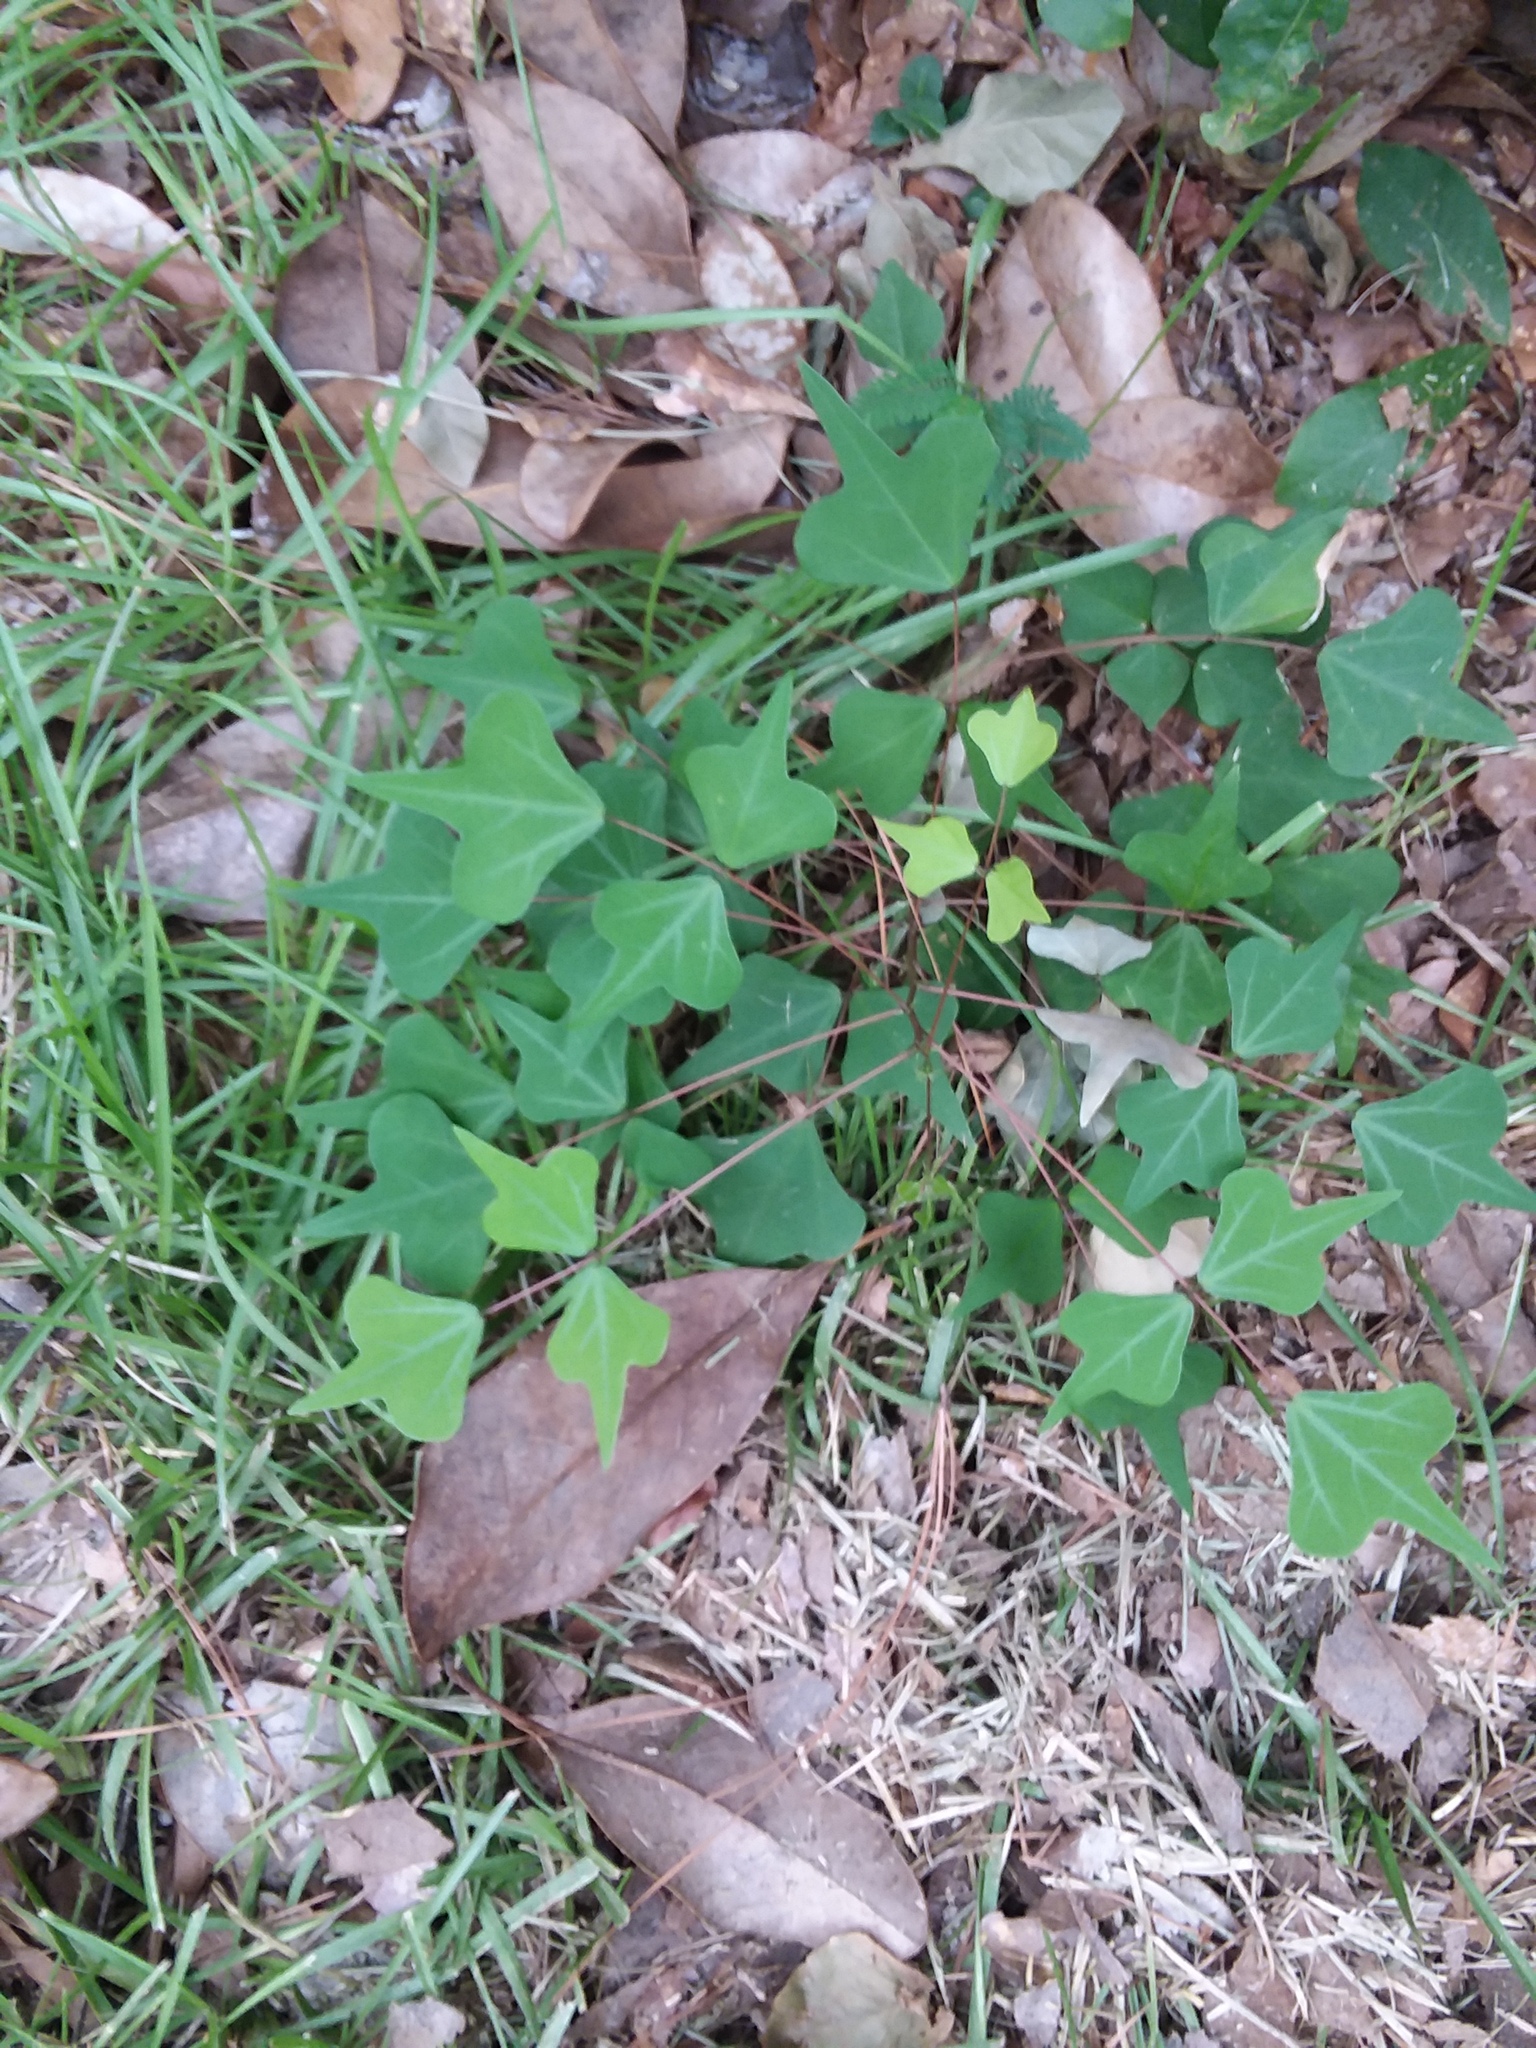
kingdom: Plantae
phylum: Tracheophyta
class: Magnoliopsida
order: Fabales
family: Fabaceae
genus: Erythrina
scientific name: Erythrina herbacea
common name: Coral-bean
